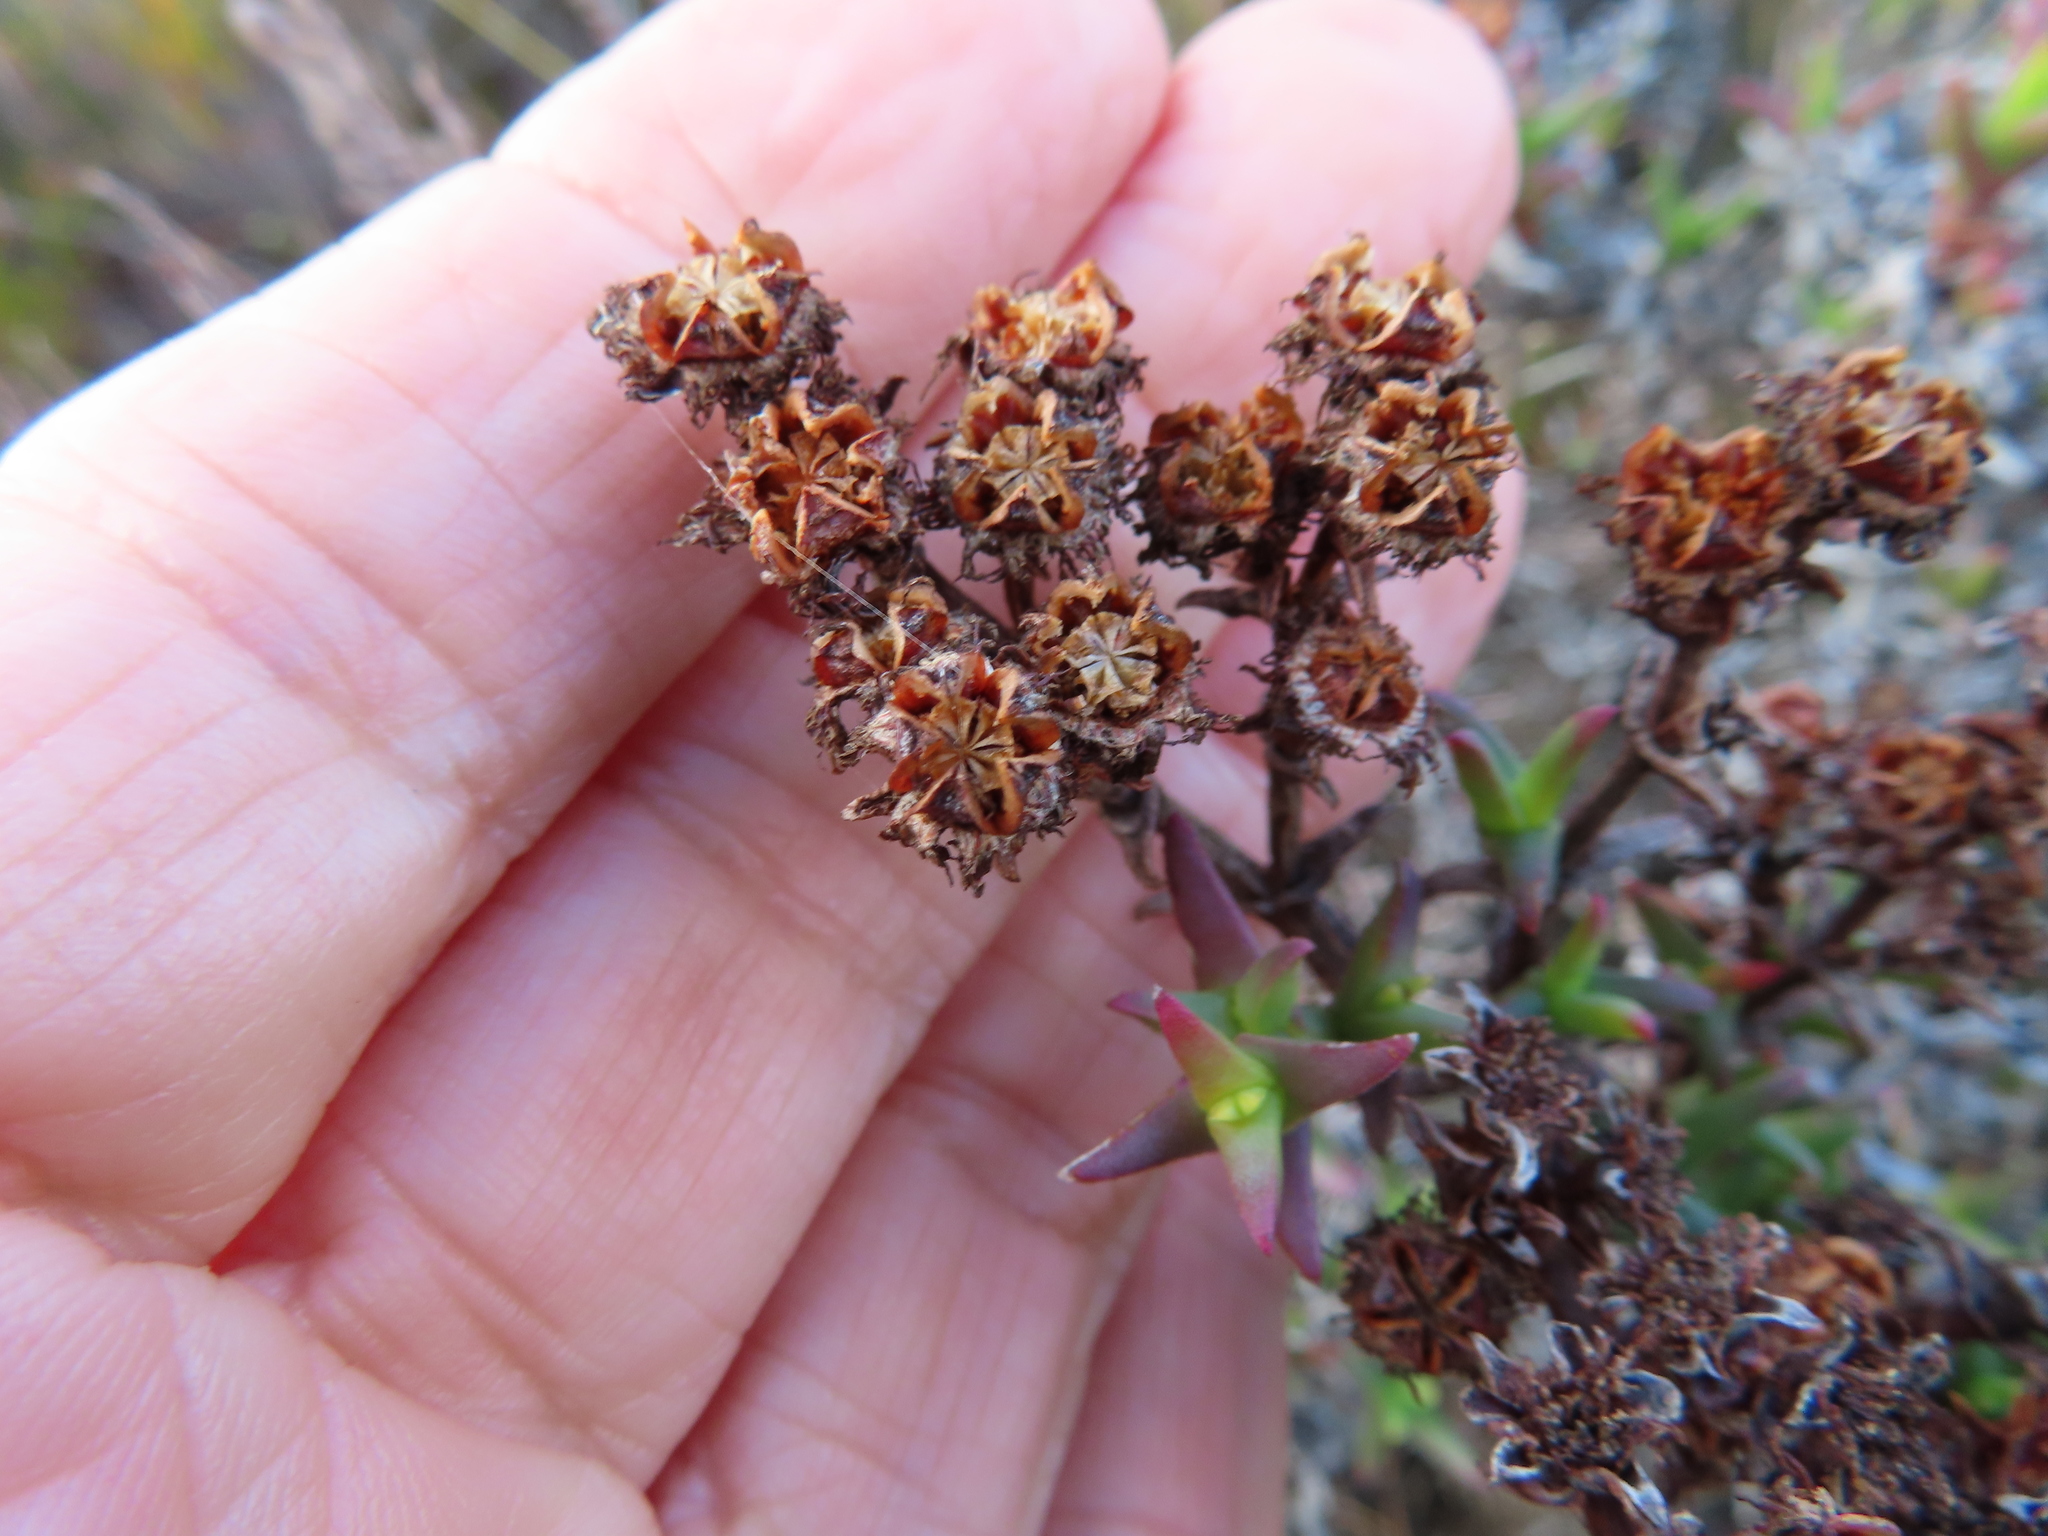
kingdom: Plantae
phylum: Tracheophyta
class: Magnoliopsida
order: Caryophyllales
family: Aizoaceae
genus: Ruschia
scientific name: Ruschia calcicola
